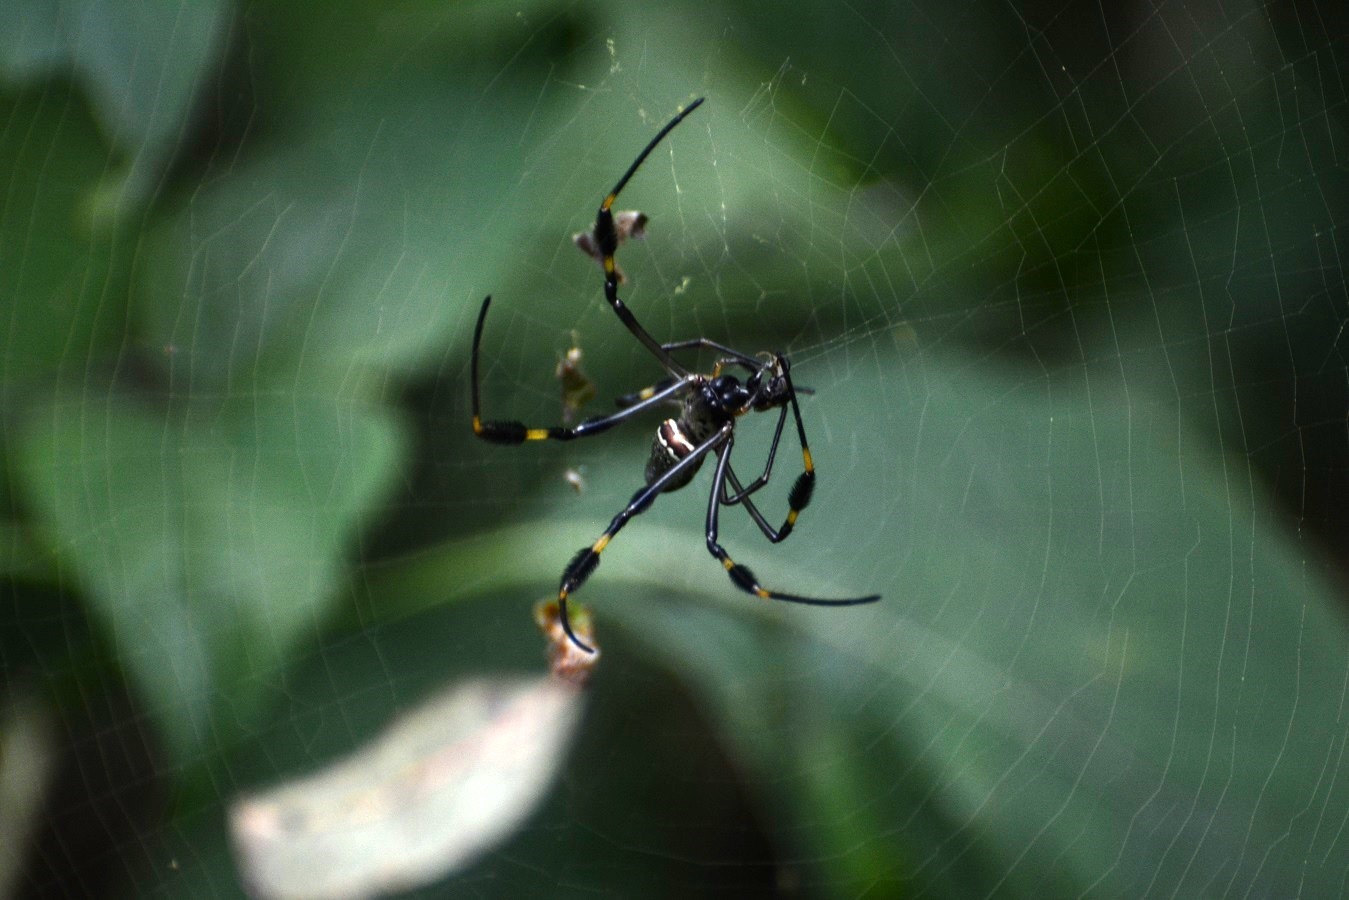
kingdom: Animalia
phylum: Arthropoda
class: Arachnida
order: Araneae
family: Araneidae
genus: Trichonephila
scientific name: Trichonephila clavipes
